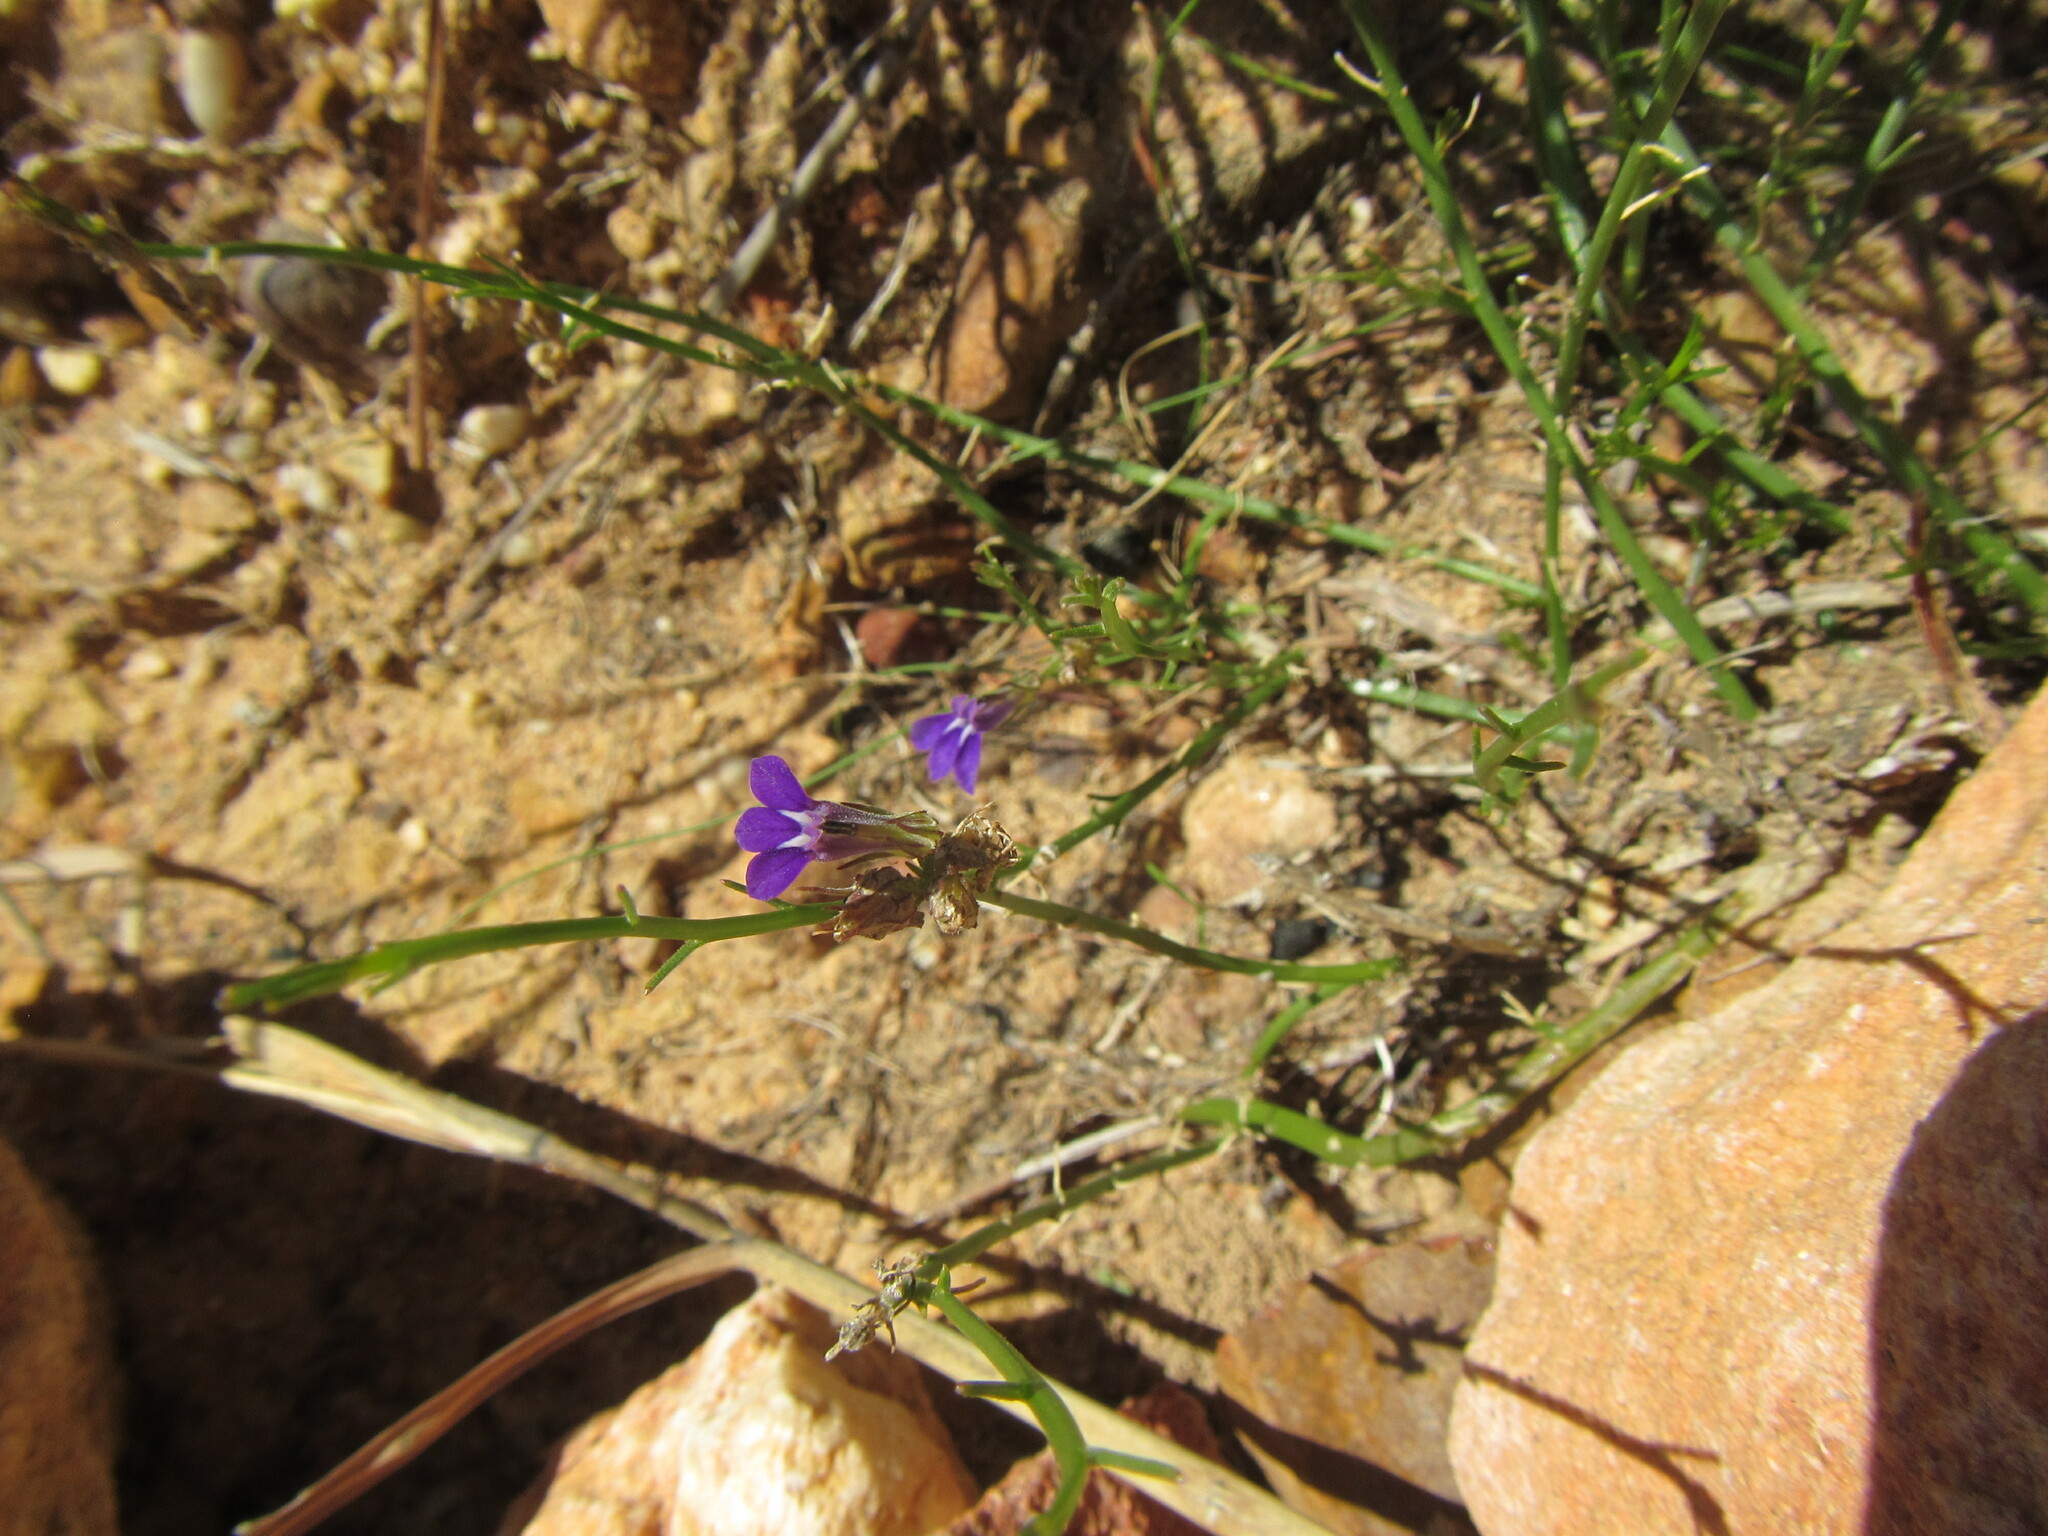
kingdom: Plantae
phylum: Tracheophyta
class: Magnoliopsida
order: Asterales
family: Campanulaceae
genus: Lobelia
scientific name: Lobelia linearis
